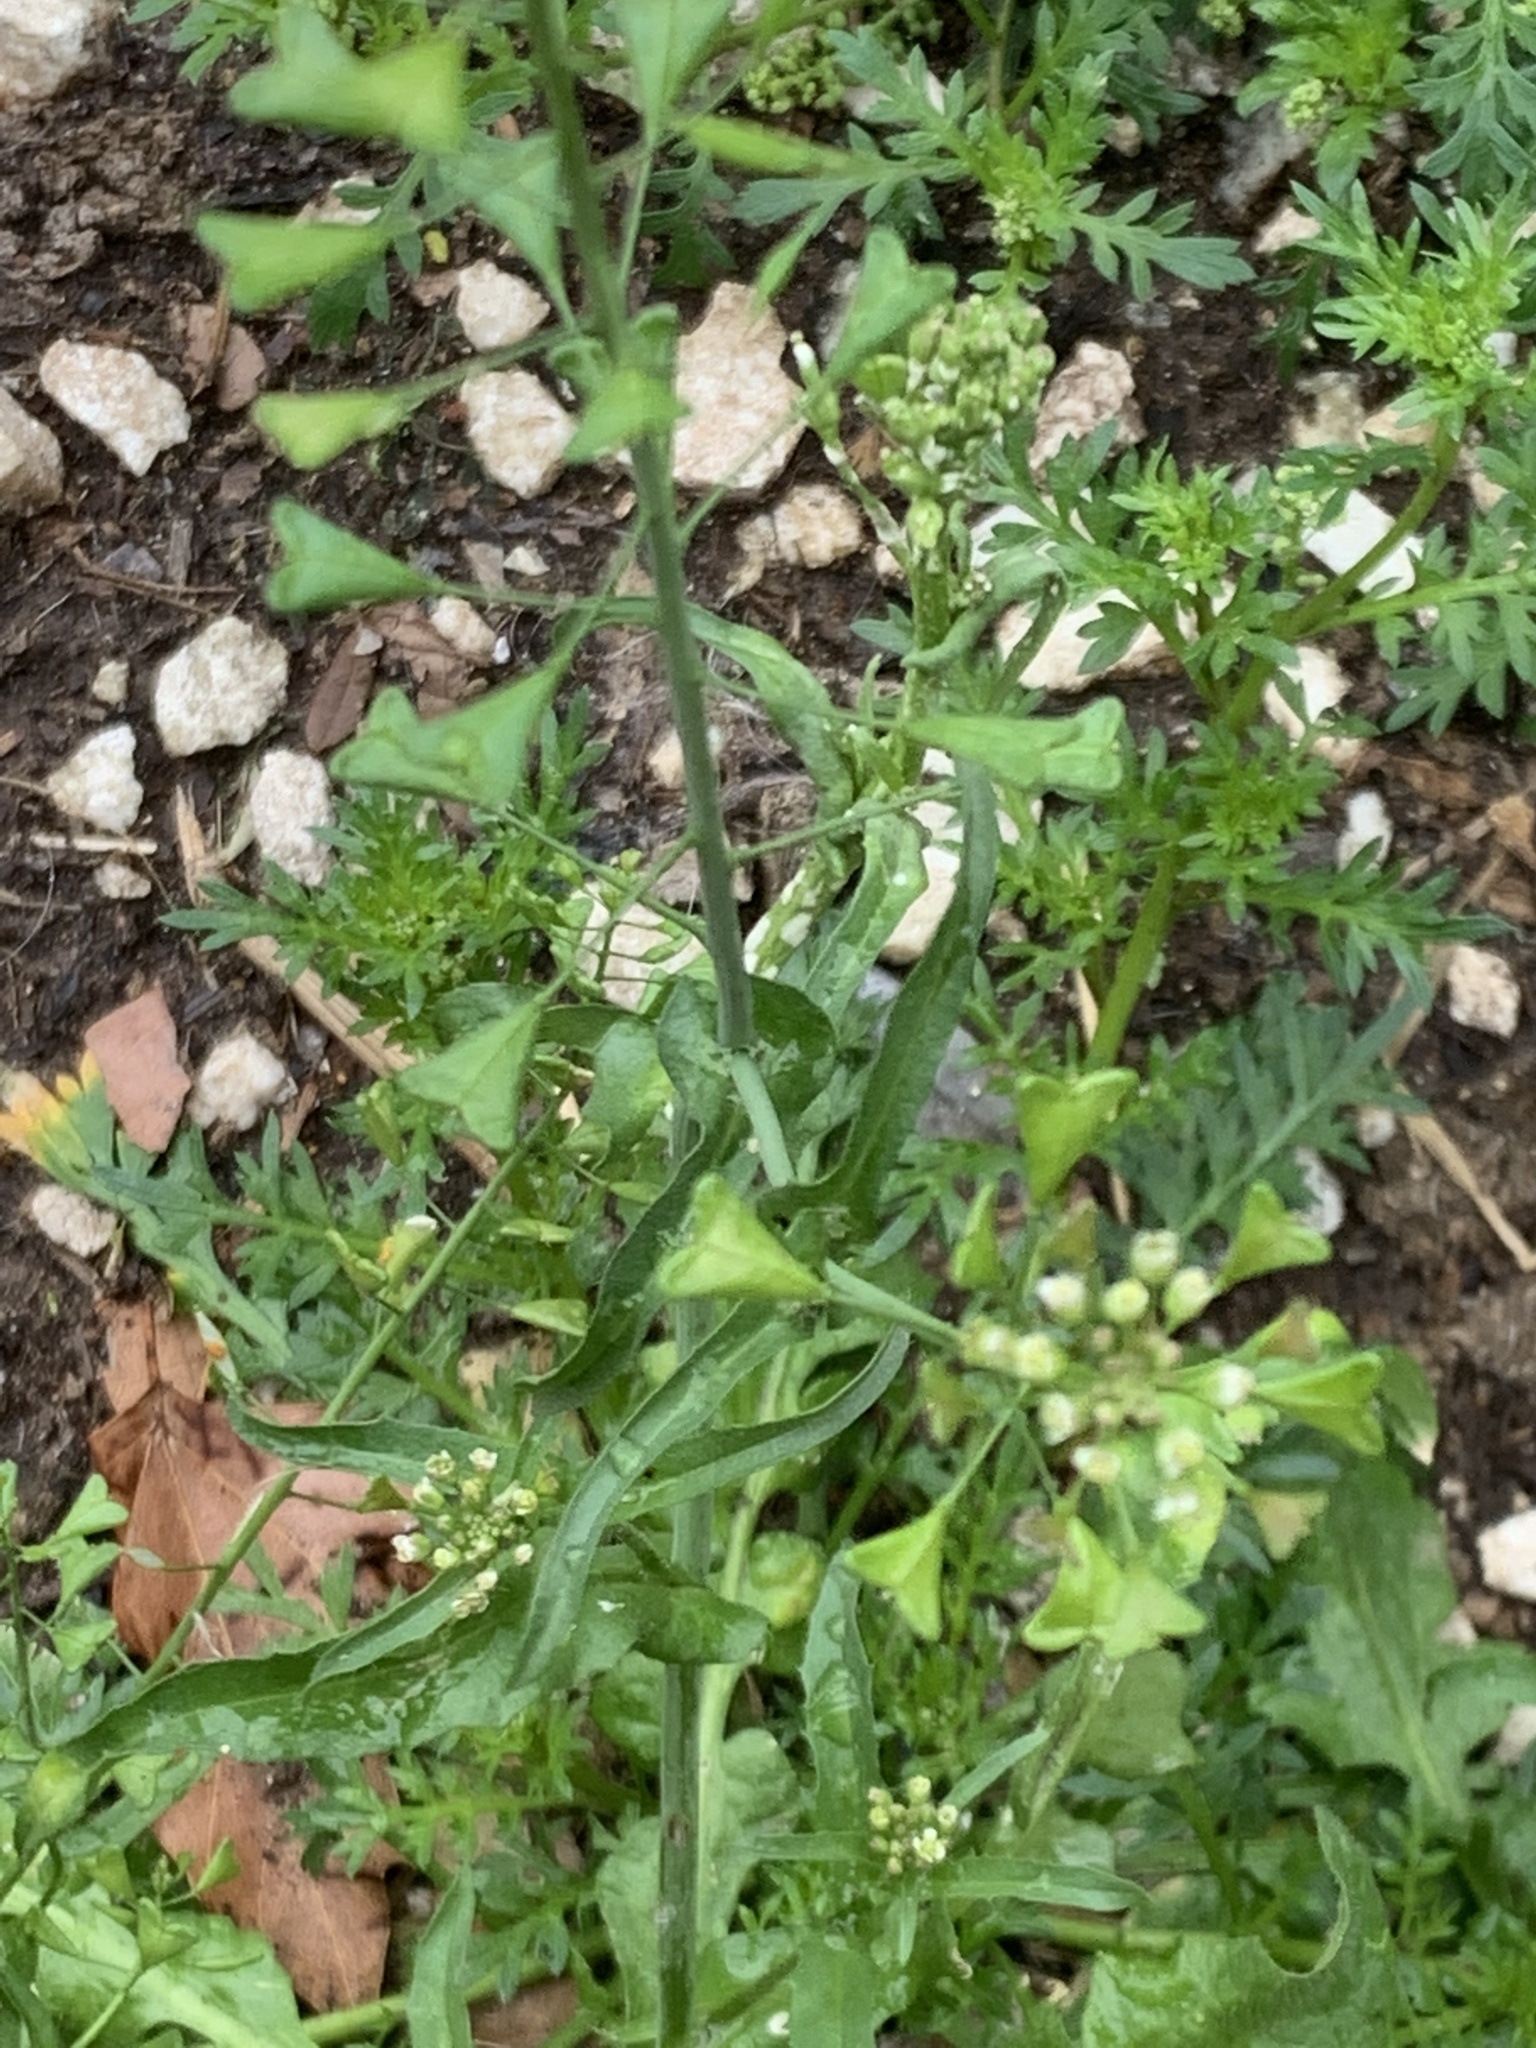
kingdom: Plantae
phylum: Tracheophyta
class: Magnoliopsida
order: Brassicales
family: Brassicaceae
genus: Capsella
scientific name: Capsella bursa-pastoris
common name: Shepherd's purse
